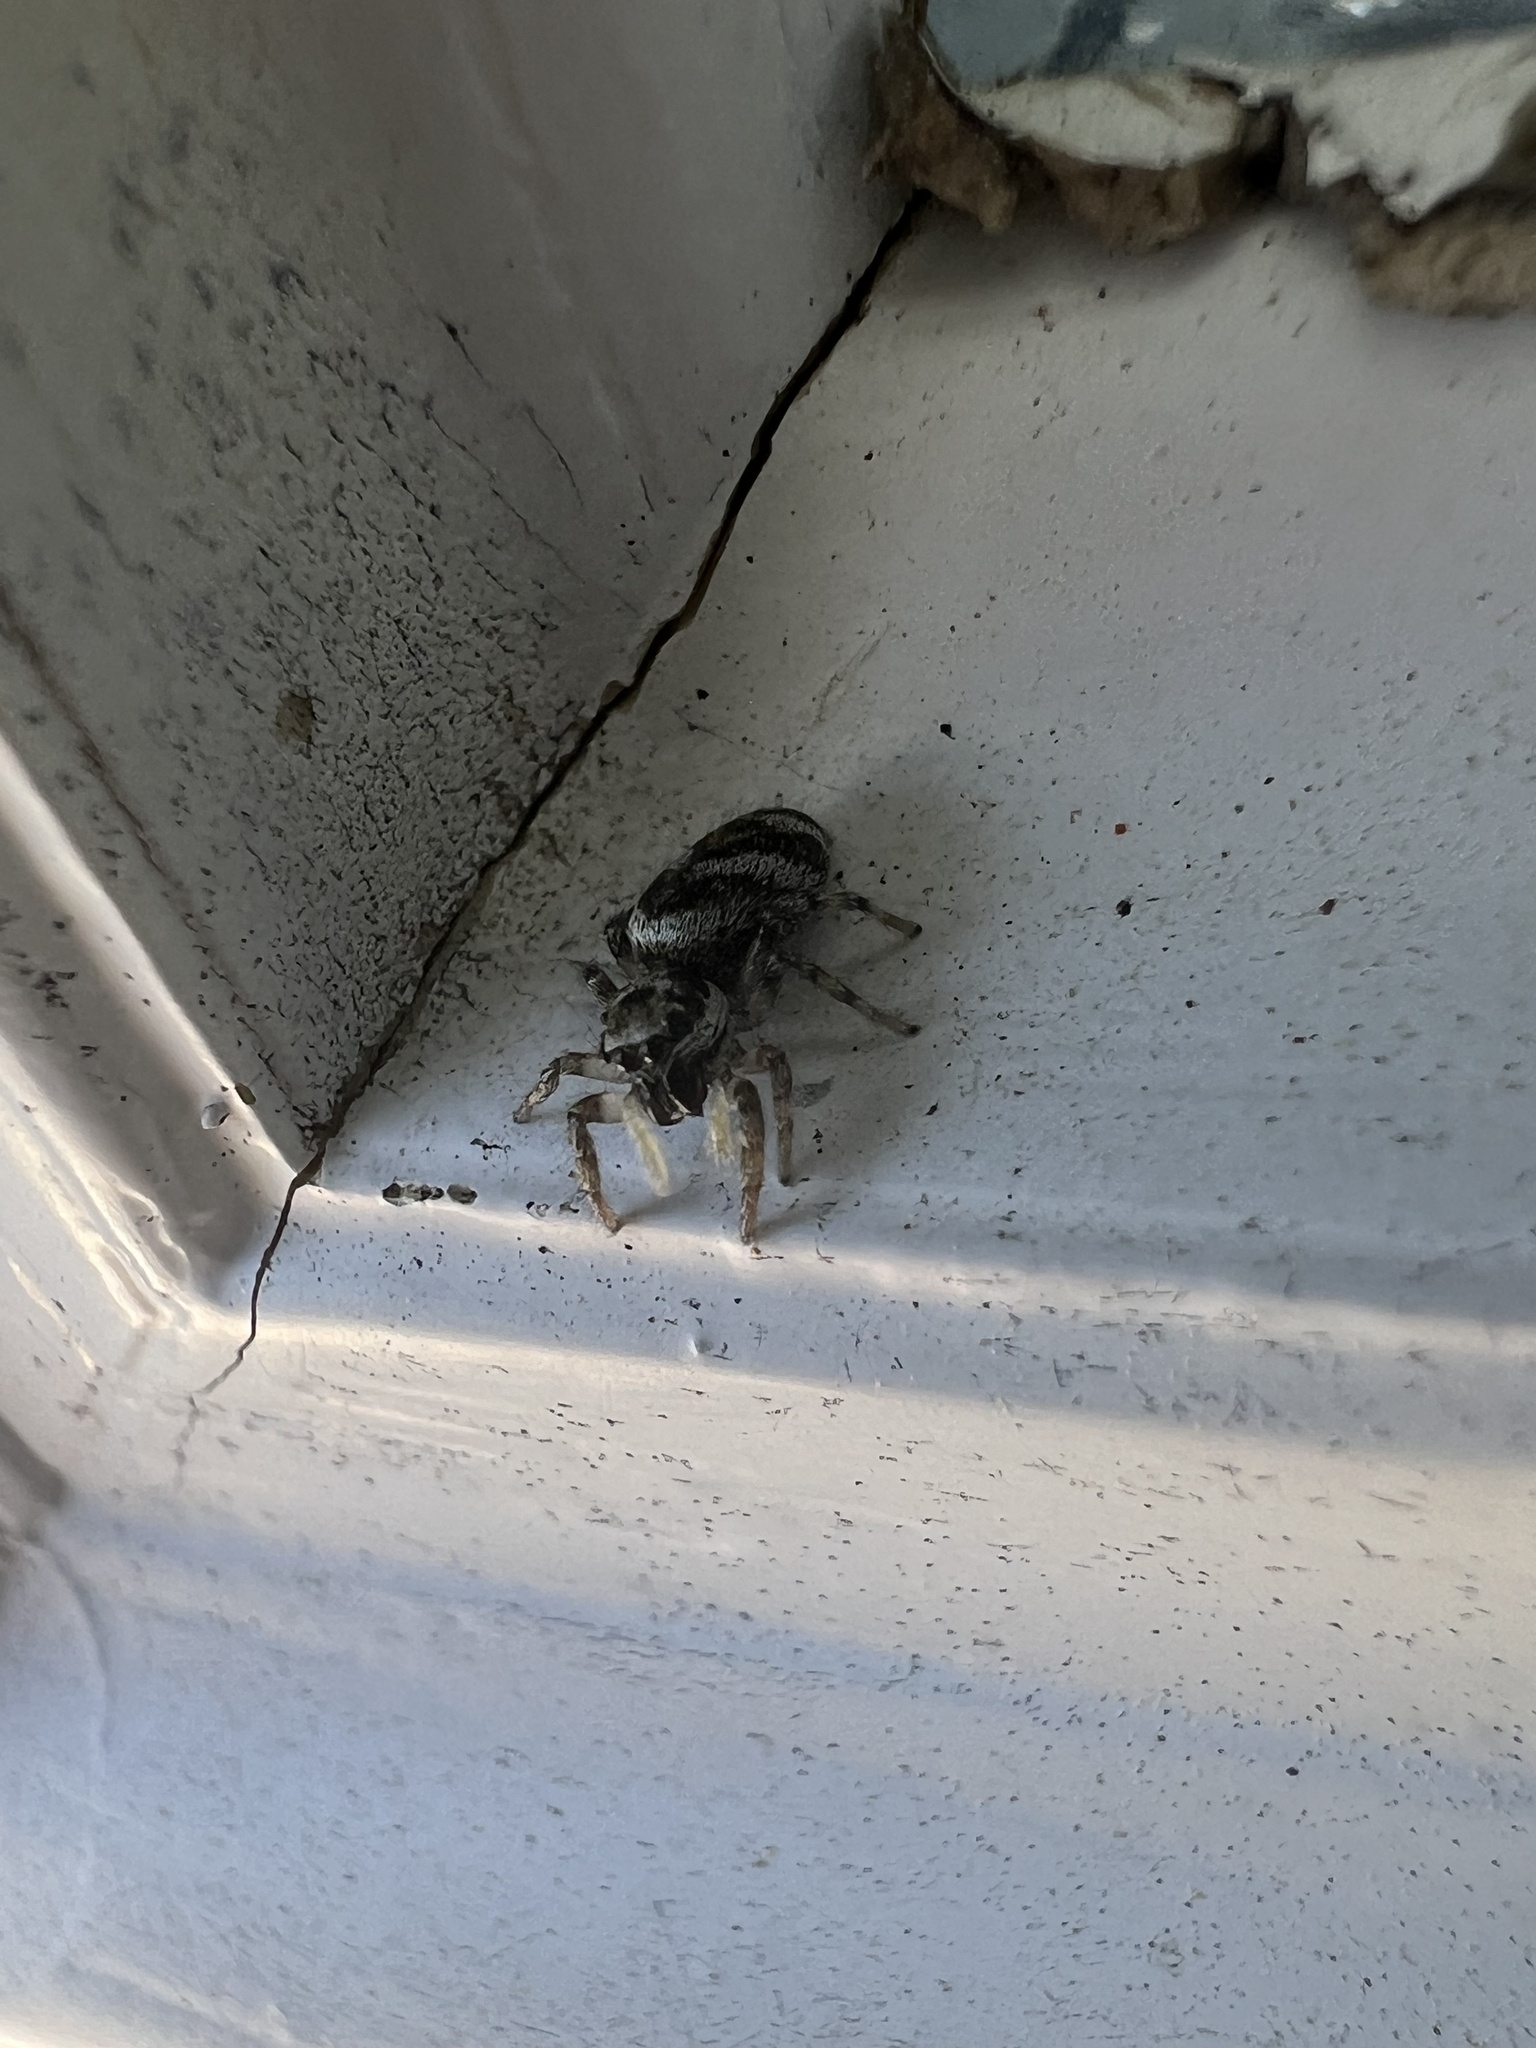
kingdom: Animalia
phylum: Arthropoda
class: Arachnida
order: Araneae
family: Salticidae
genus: Salticus
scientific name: Salticus scenicus
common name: Zebra jumper
